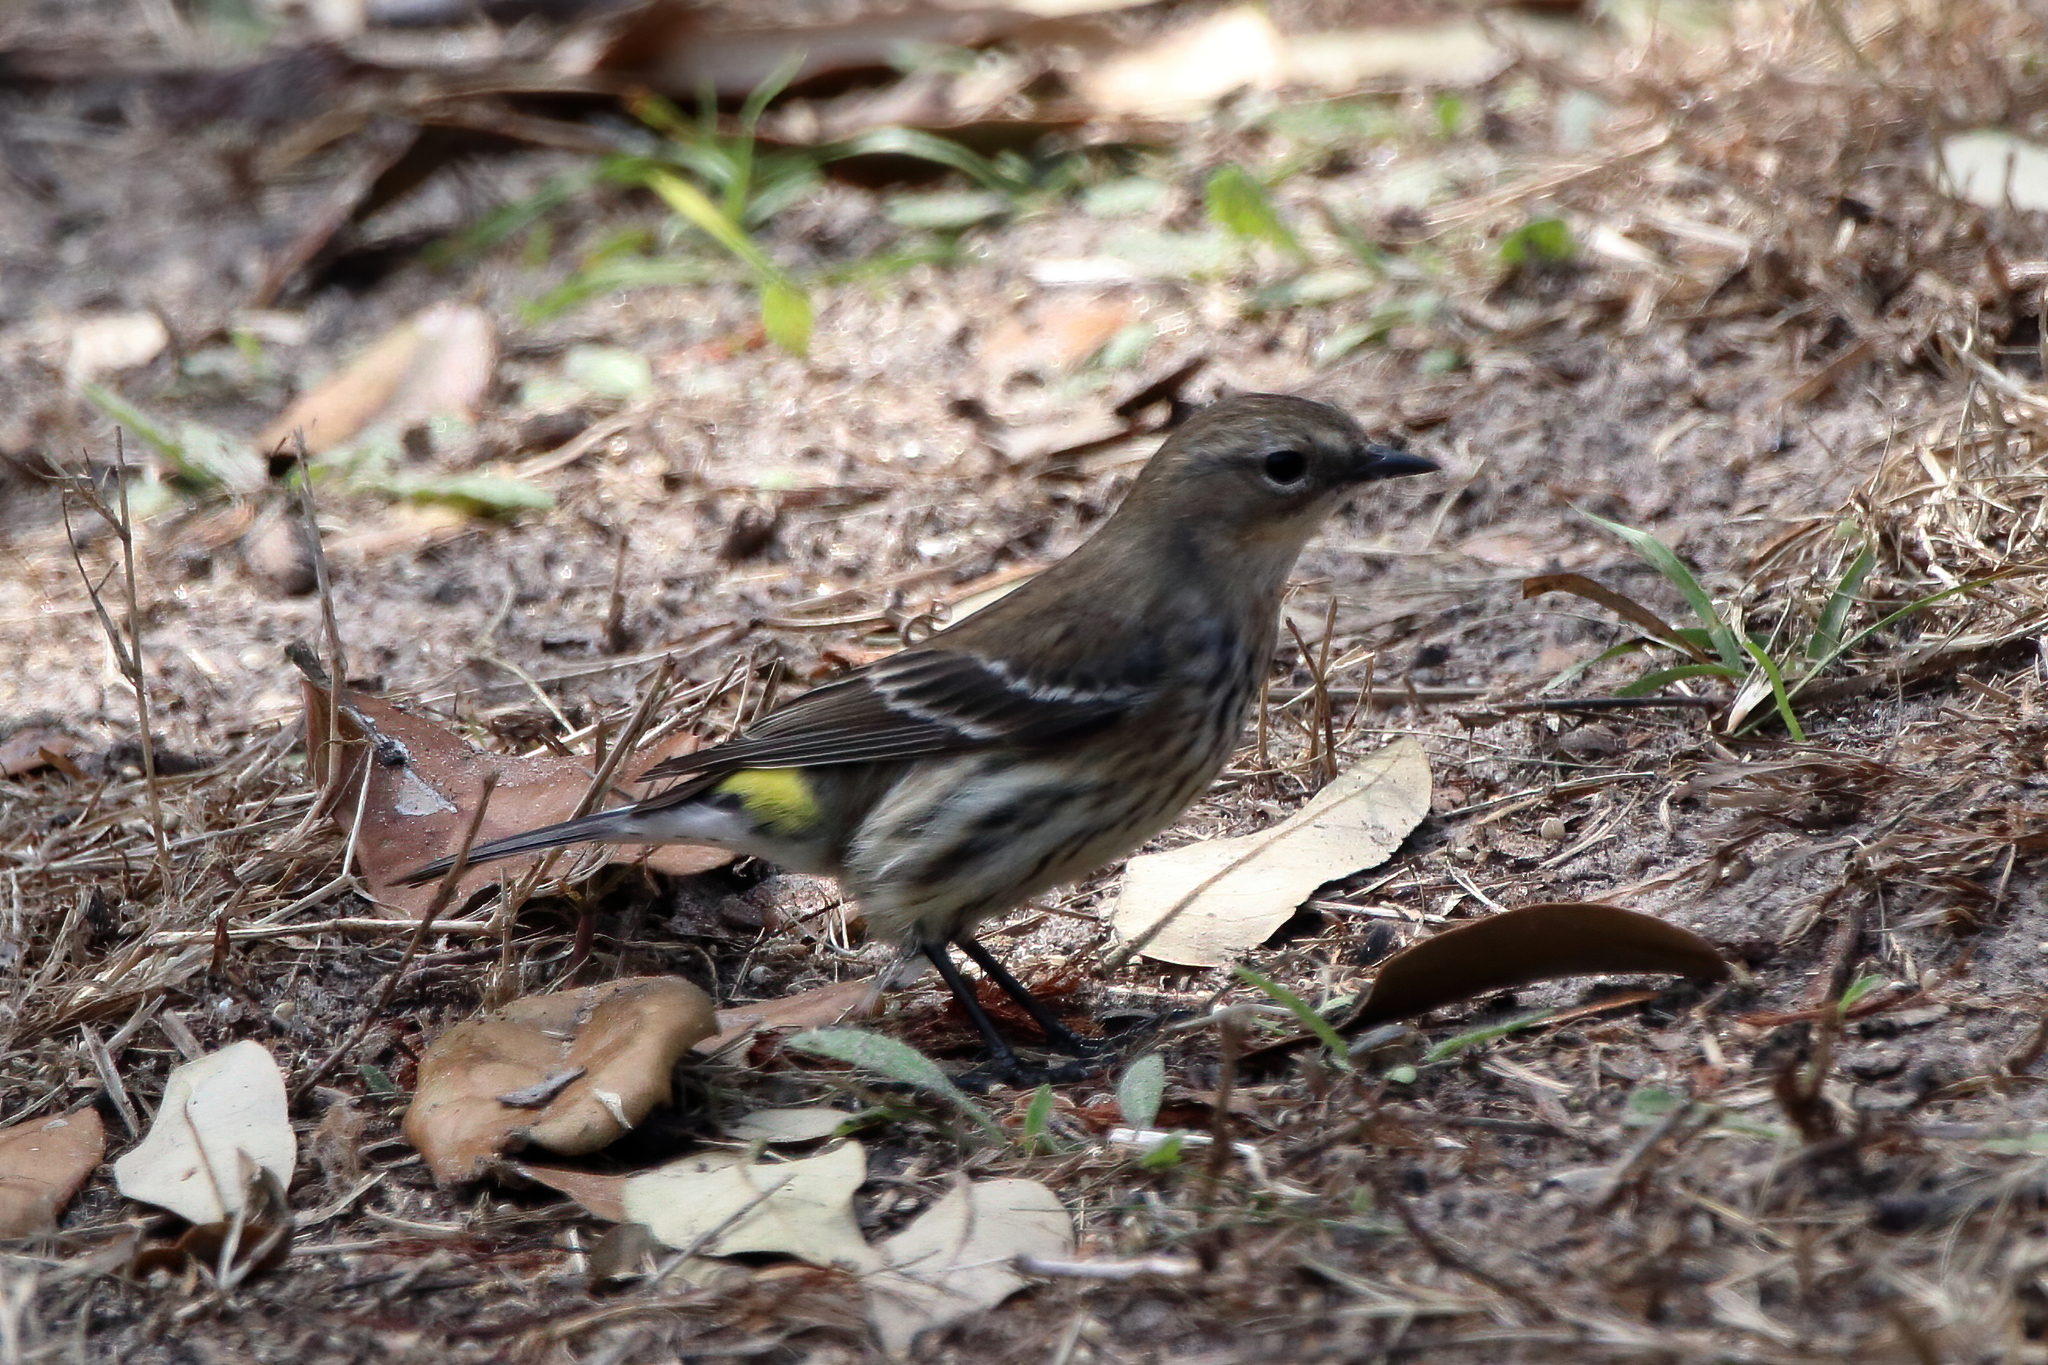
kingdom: Animalia
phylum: Chordata
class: Aves
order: Passeriformes
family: Parulidae
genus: Setophaga
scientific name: Setophaga coronata
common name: Myrtle warbler
